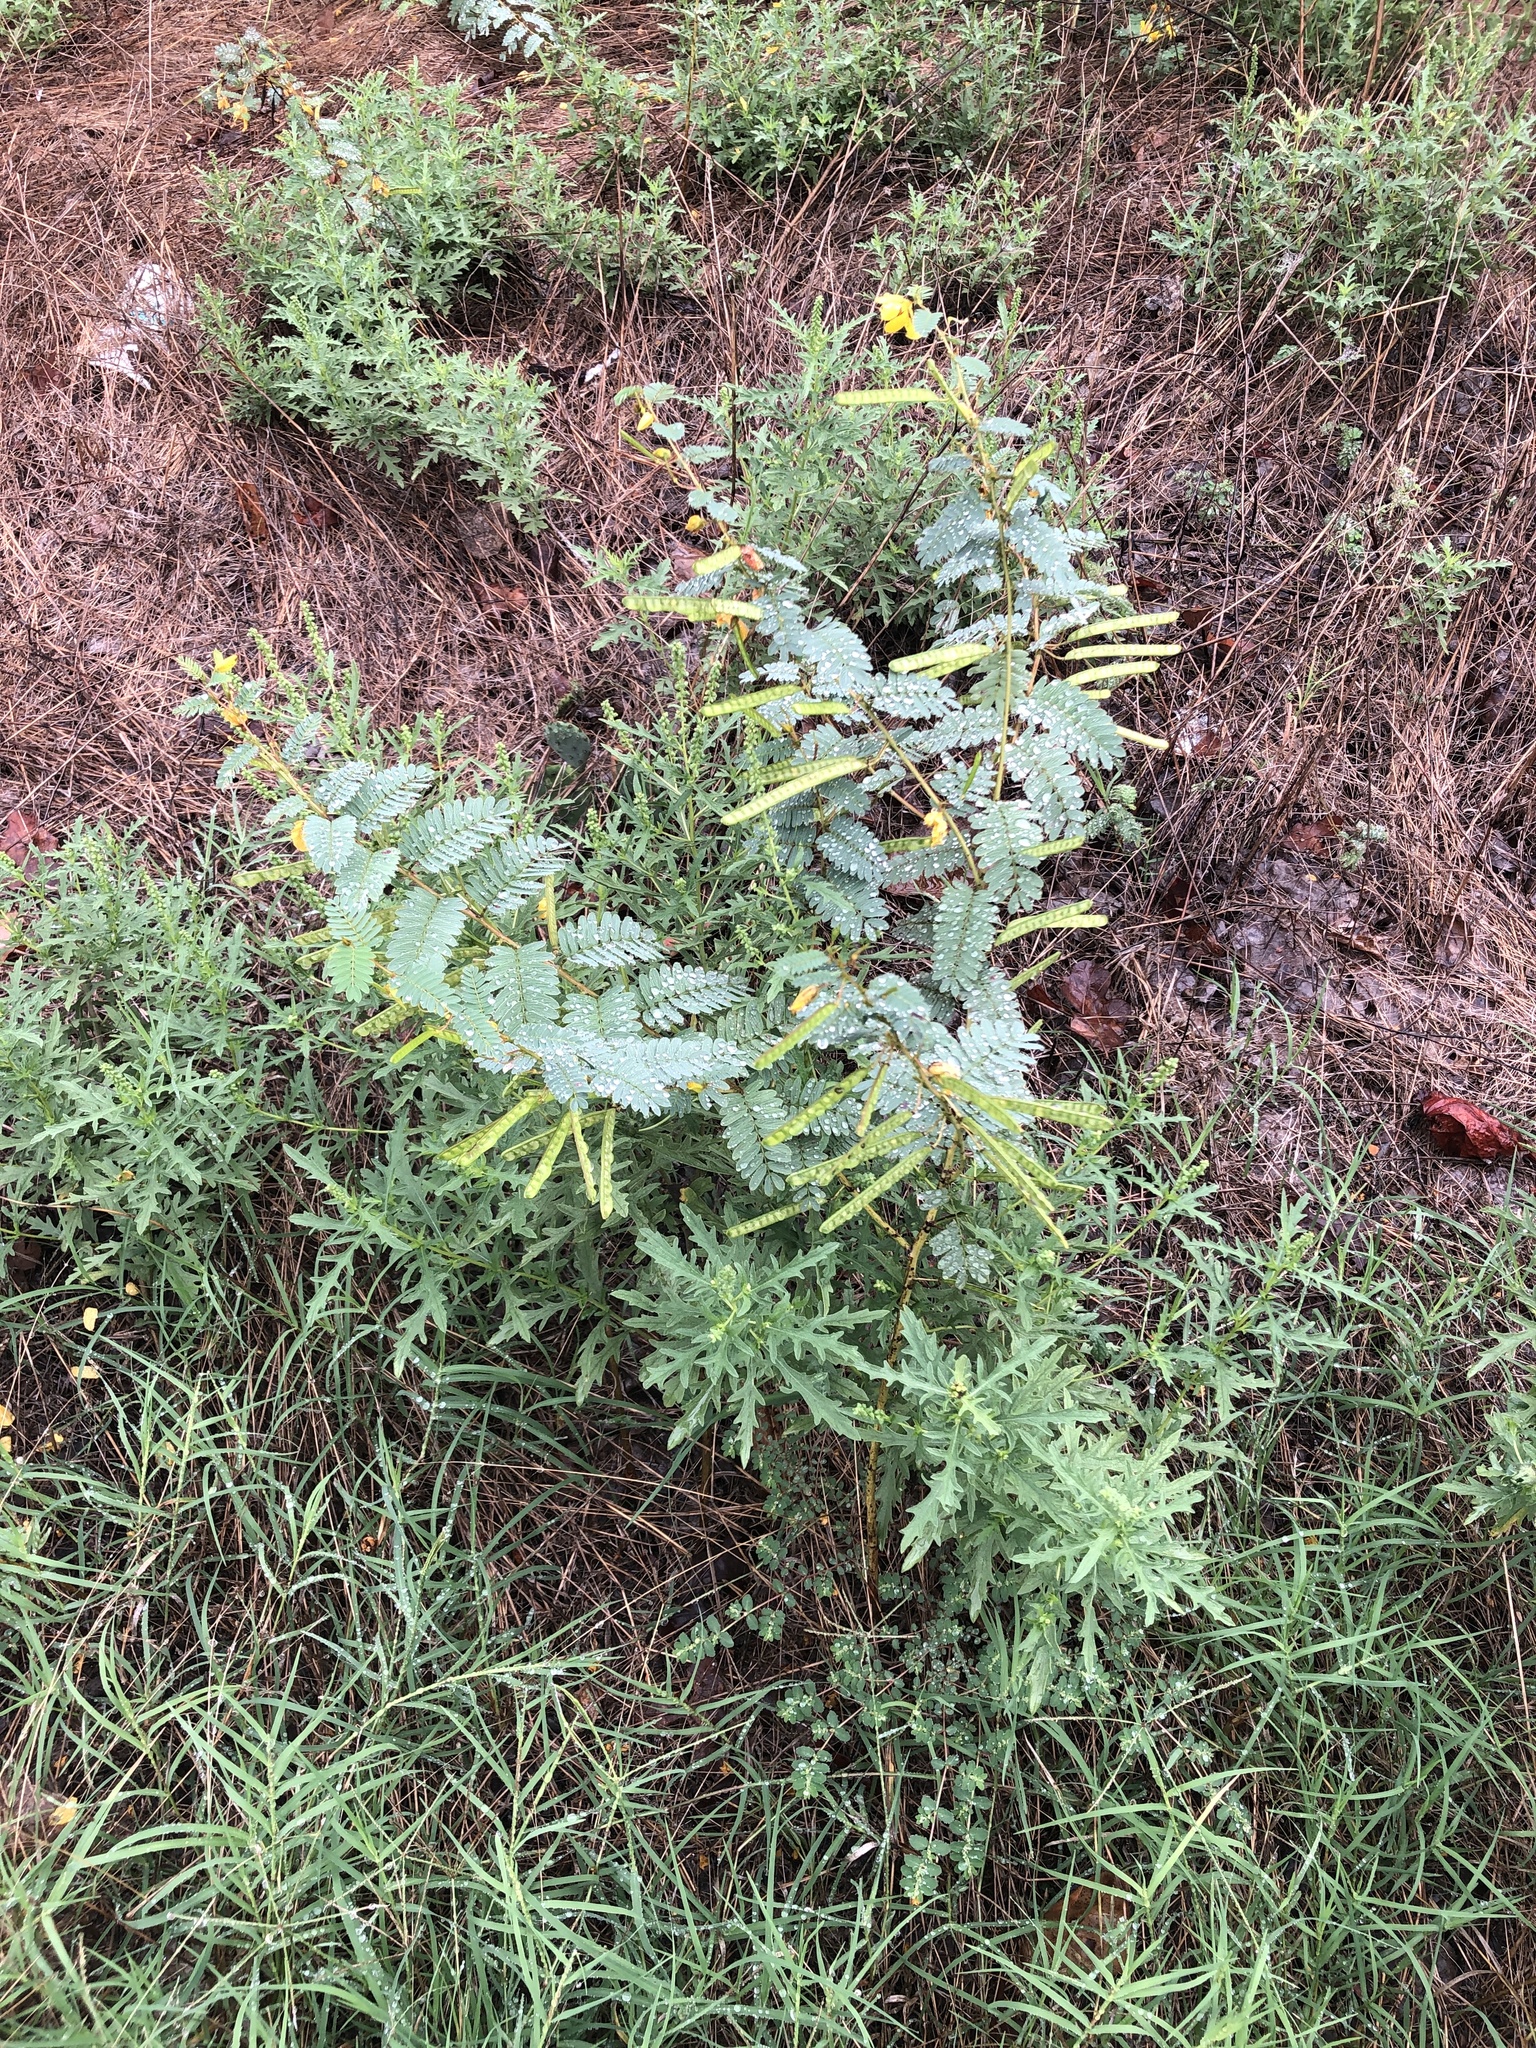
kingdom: Plantae
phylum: Tracheophyta
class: Magnoliopsida
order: Fabales
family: Fabaceae
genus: Chamaecrista
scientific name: Chamaecrista fasciculata
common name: Golden cassia
